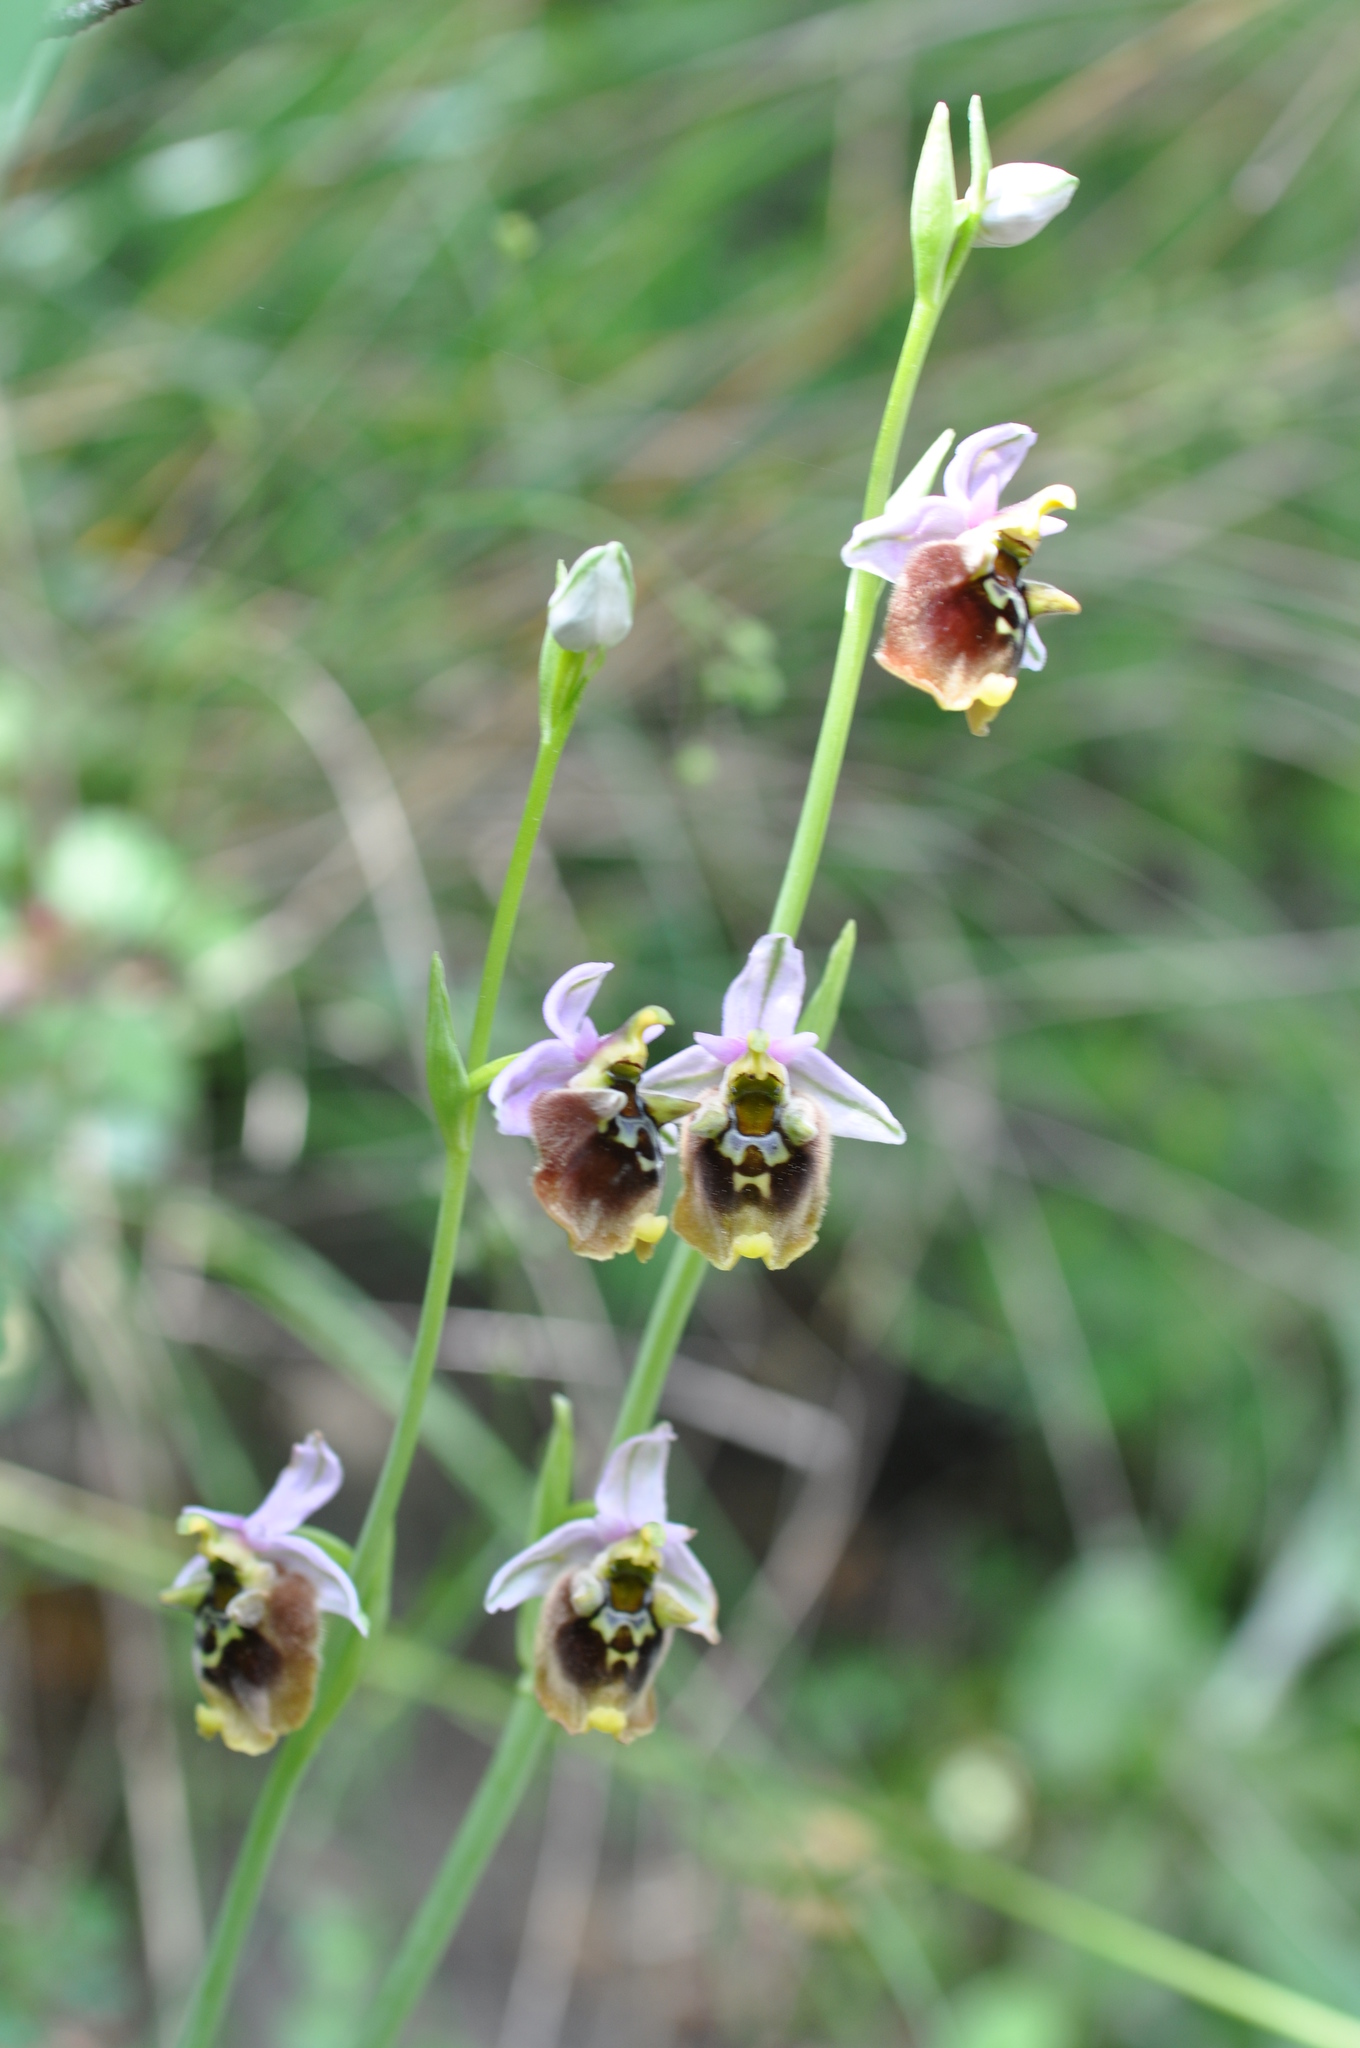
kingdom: Plantae
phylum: Tracheophyta
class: Liliopsida
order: Asparagales
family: Orchidaceae
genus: Ophrys
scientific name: Ophrys holosericea
